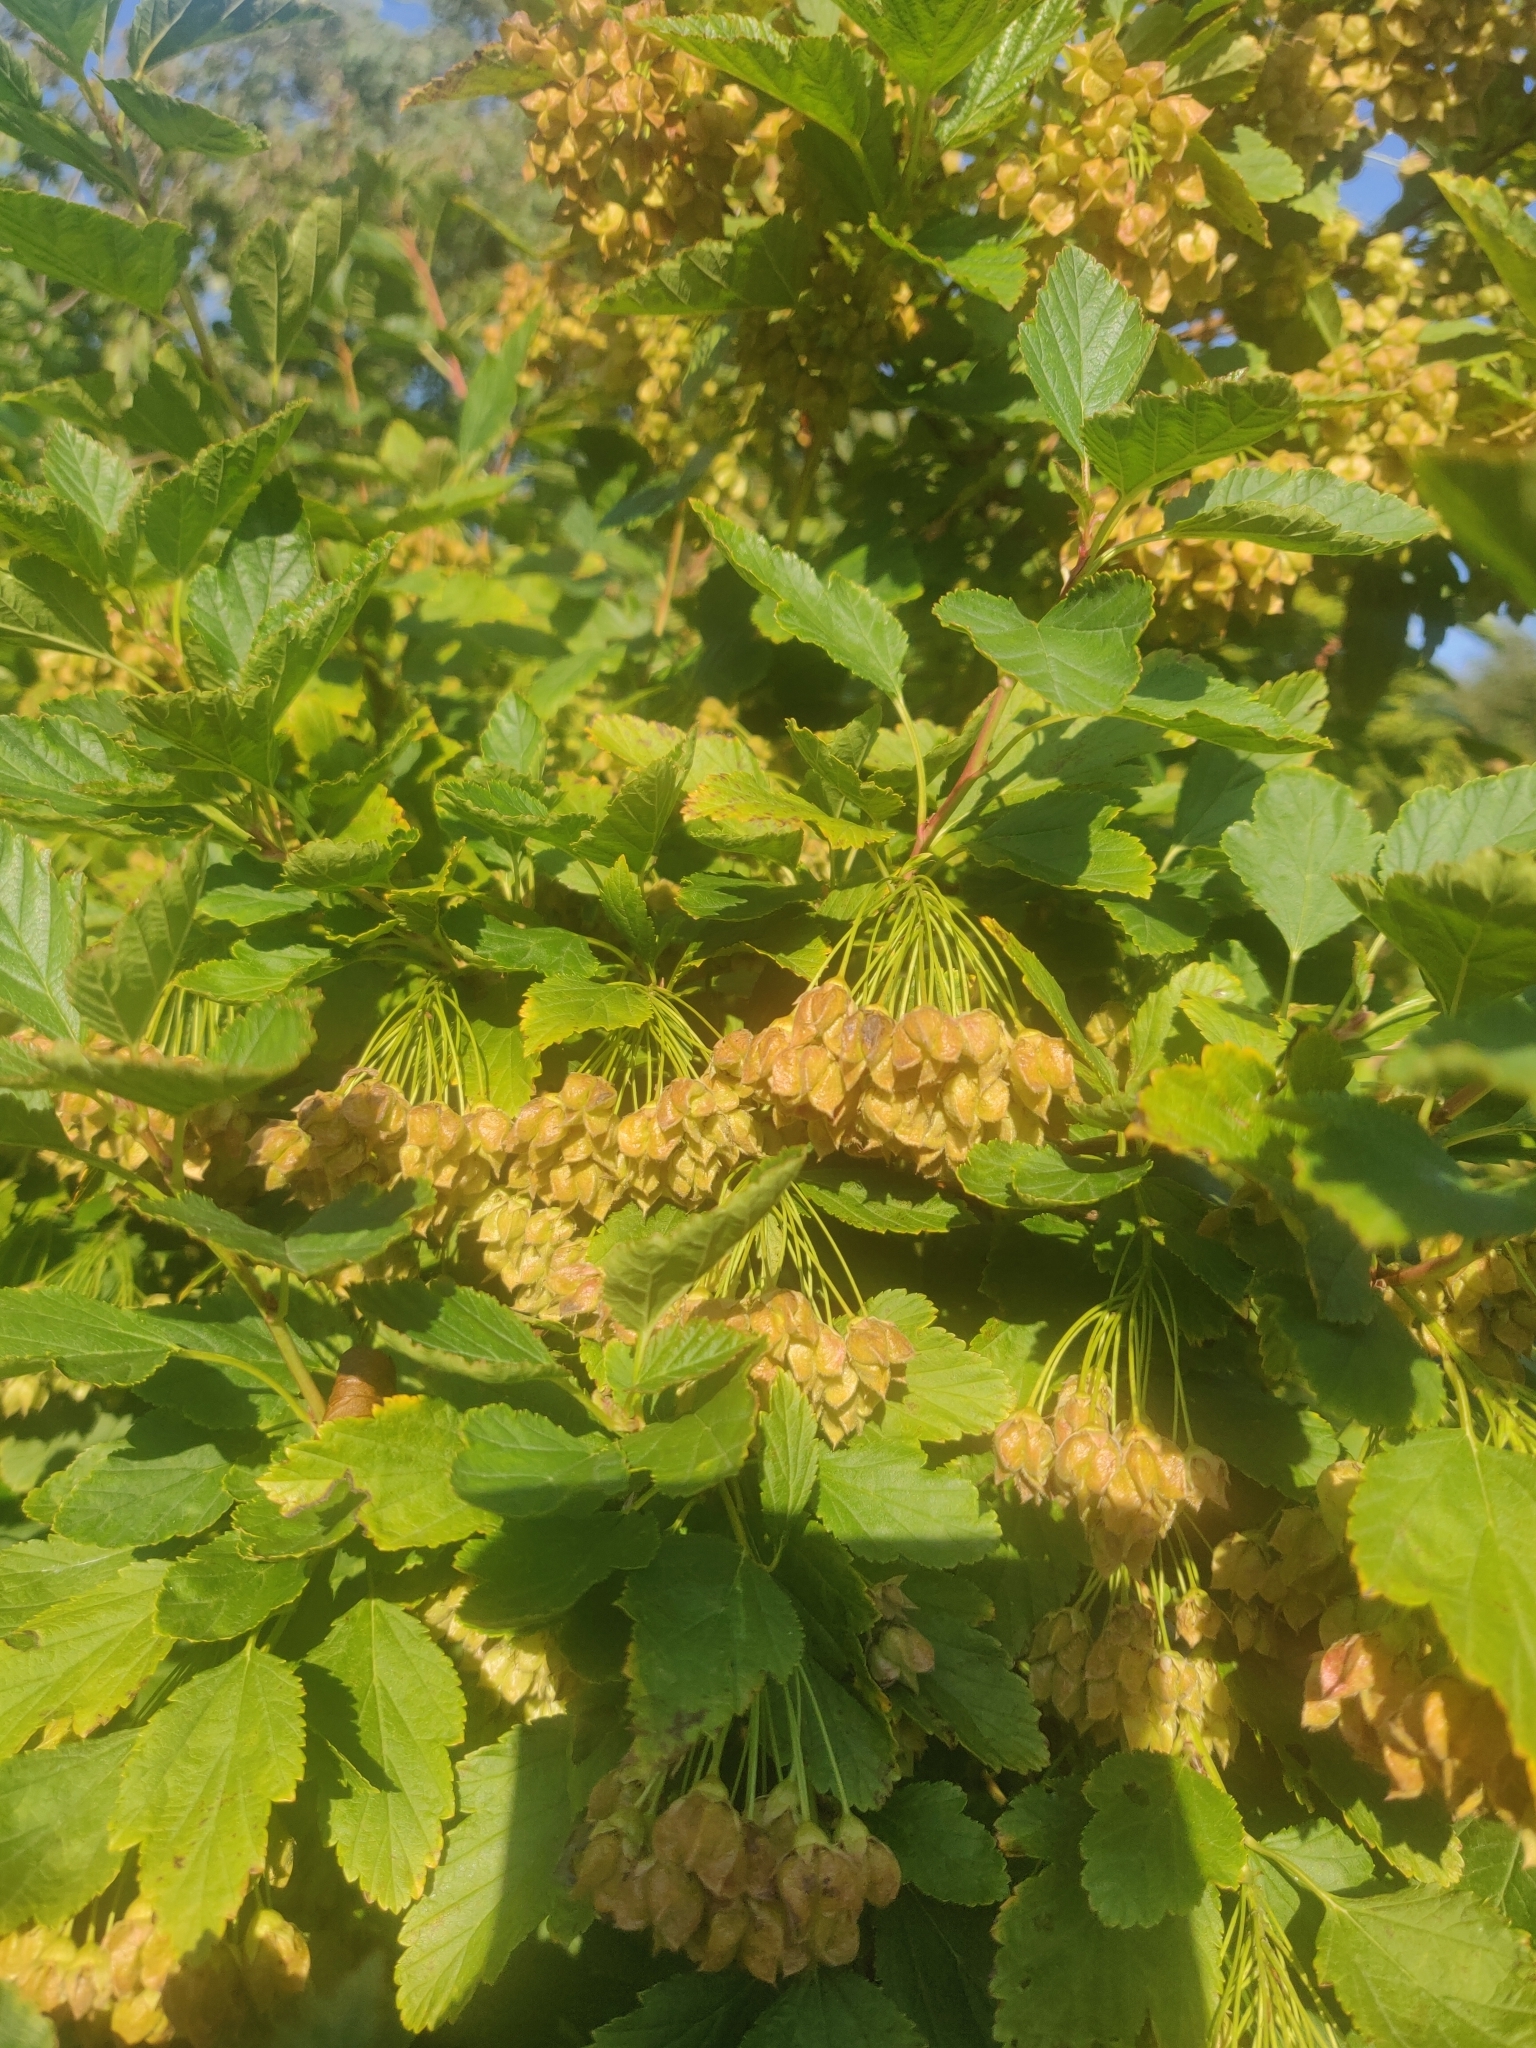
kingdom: Plantae
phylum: Tracheophyta
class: Magnoliopsida
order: Rosales
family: Rosaceae
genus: Physocarpus
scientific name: Physocarpus opulifolius
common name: Ninebark
